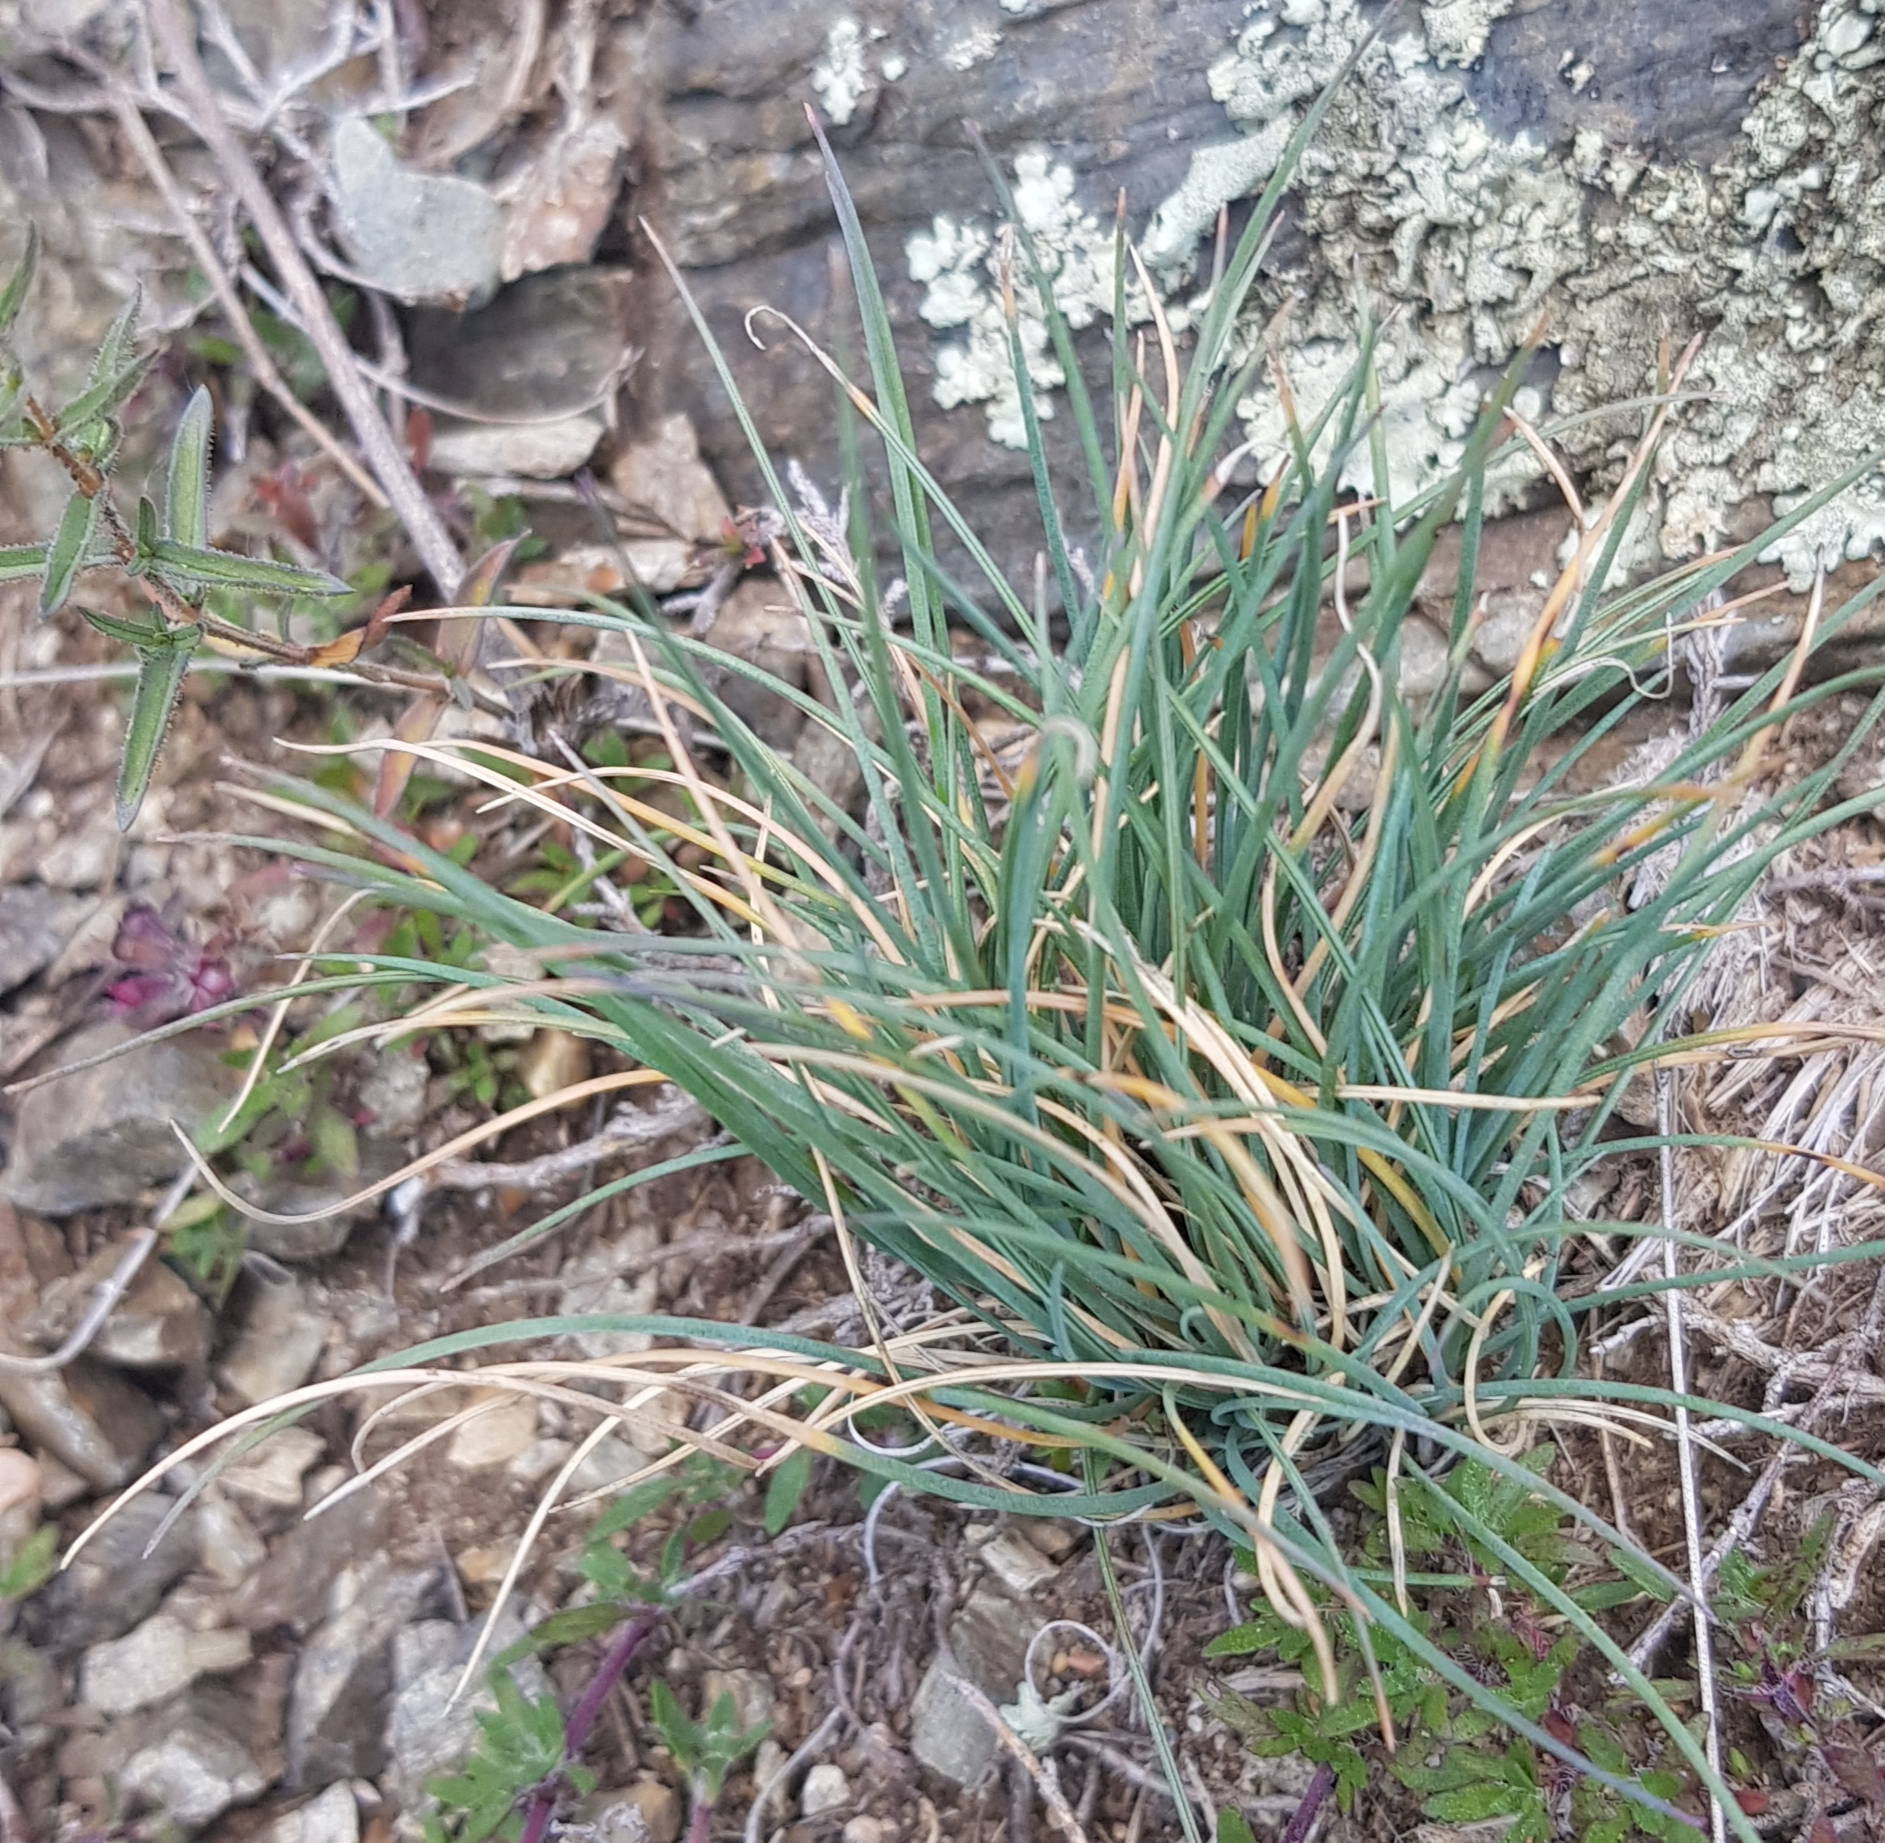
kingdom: Plantae
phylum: Tracheophyta
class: Liliopsida
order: Poales
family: Poaceae
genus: Festuca
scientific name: Festuca lenensis
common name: Lena river fescue
